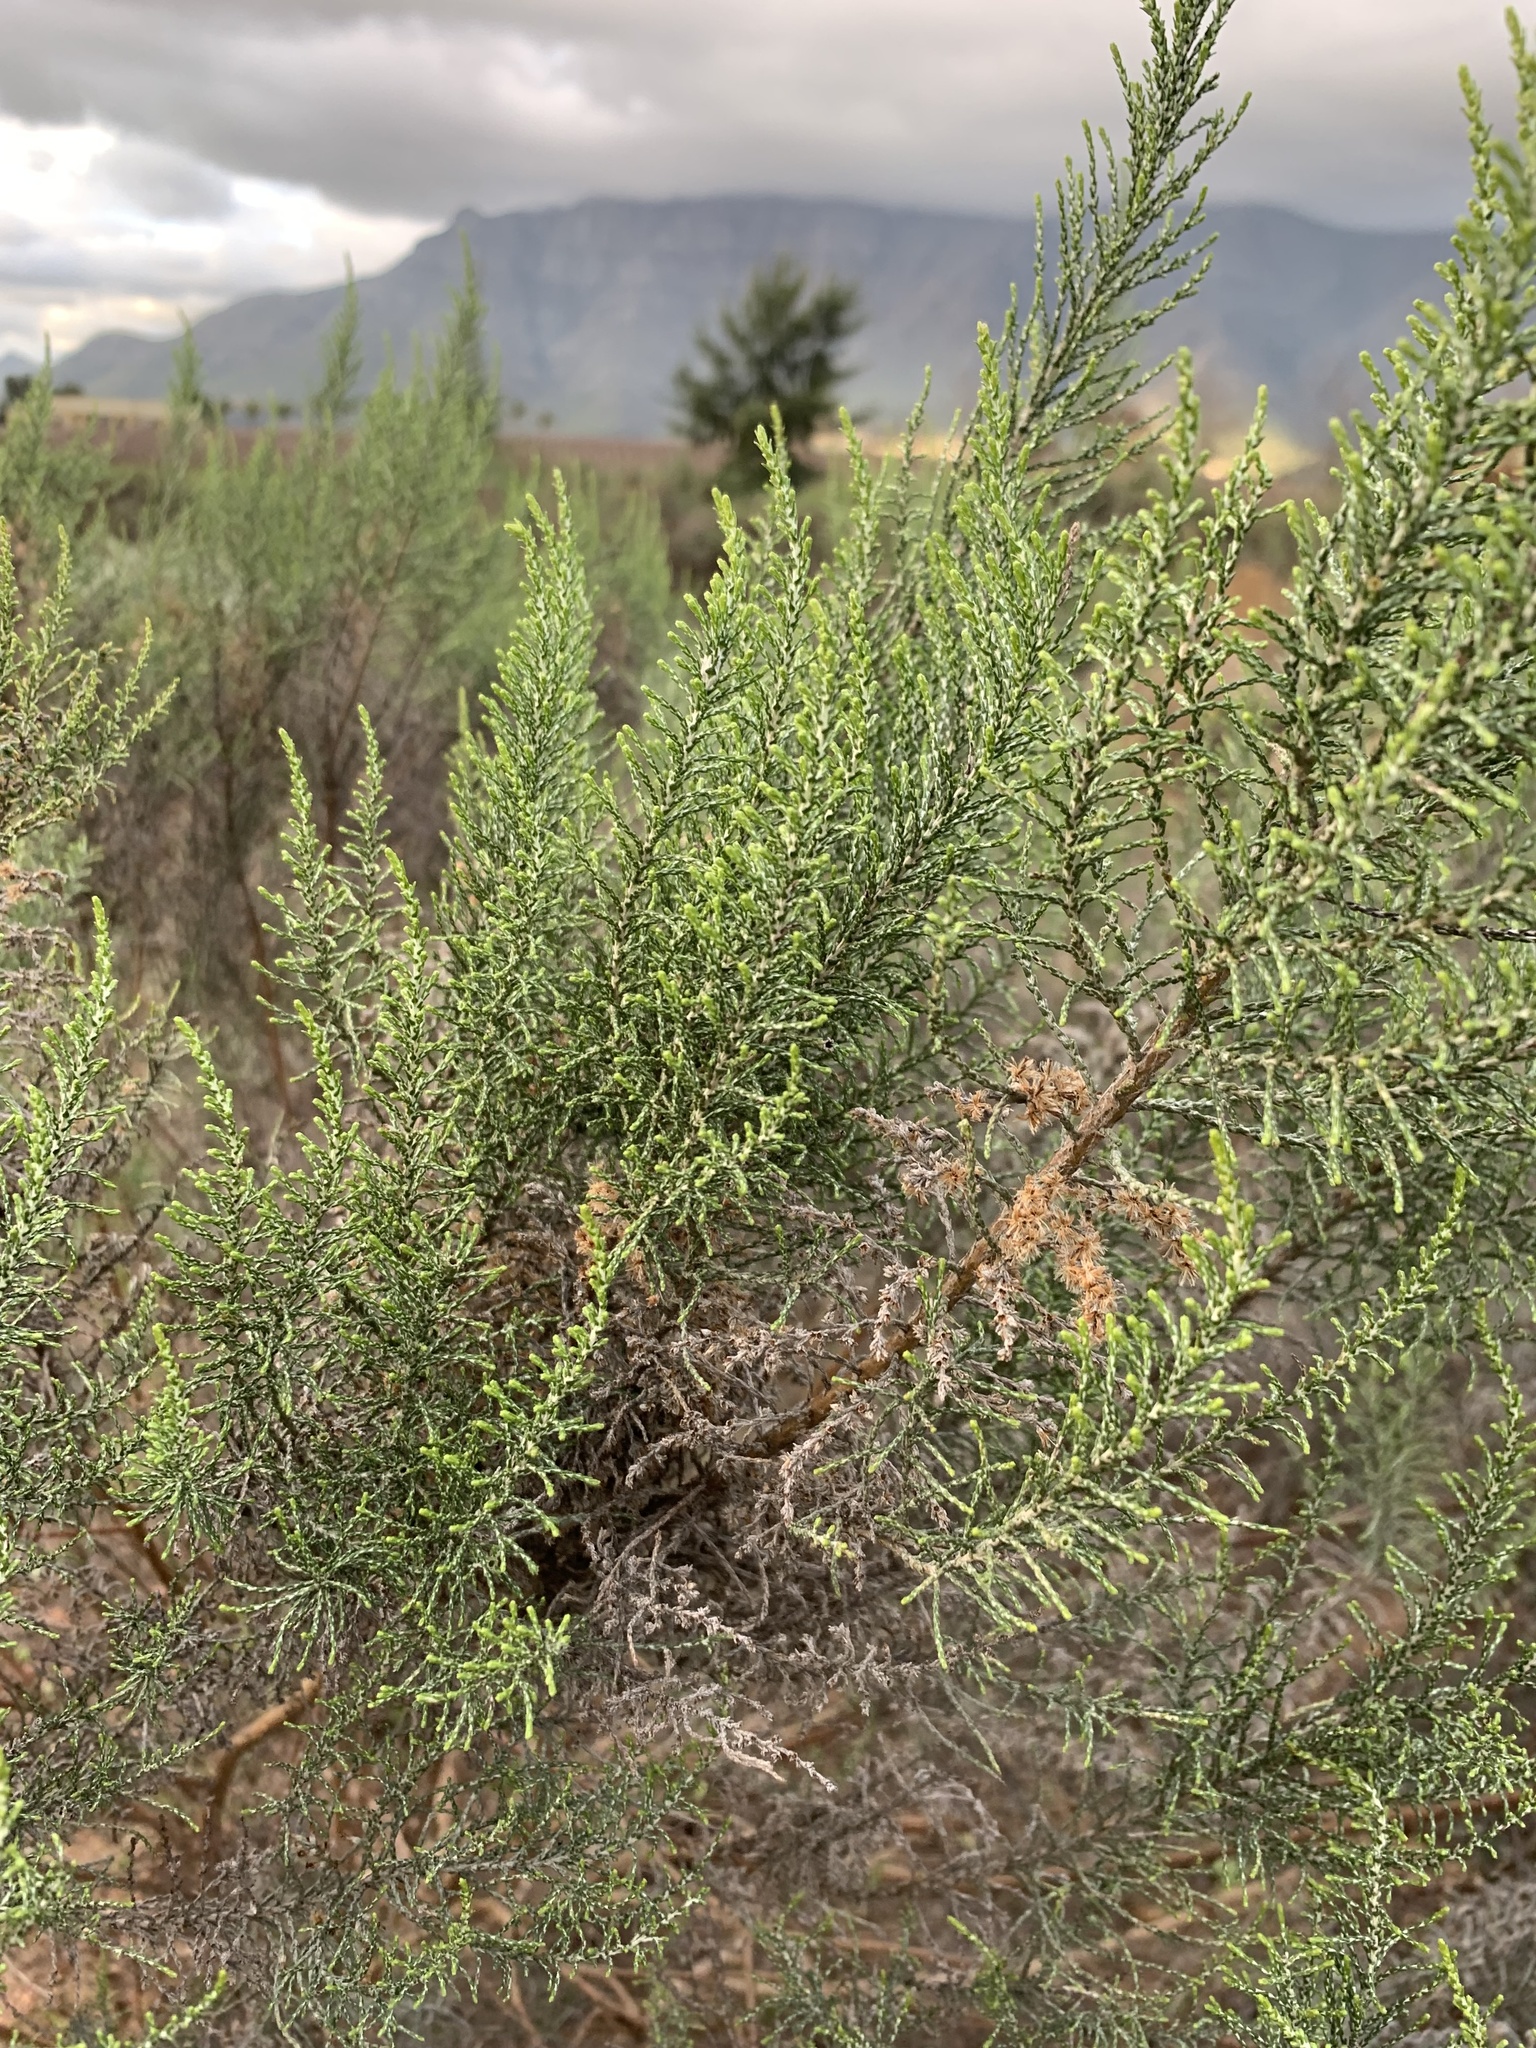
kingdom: Plantae
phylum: Tracheophyta
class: Magnoliopsida
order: Asterales
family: Asteraceae
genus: Dicerothamnus
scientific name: Dicerothamnus rhinocerotis
